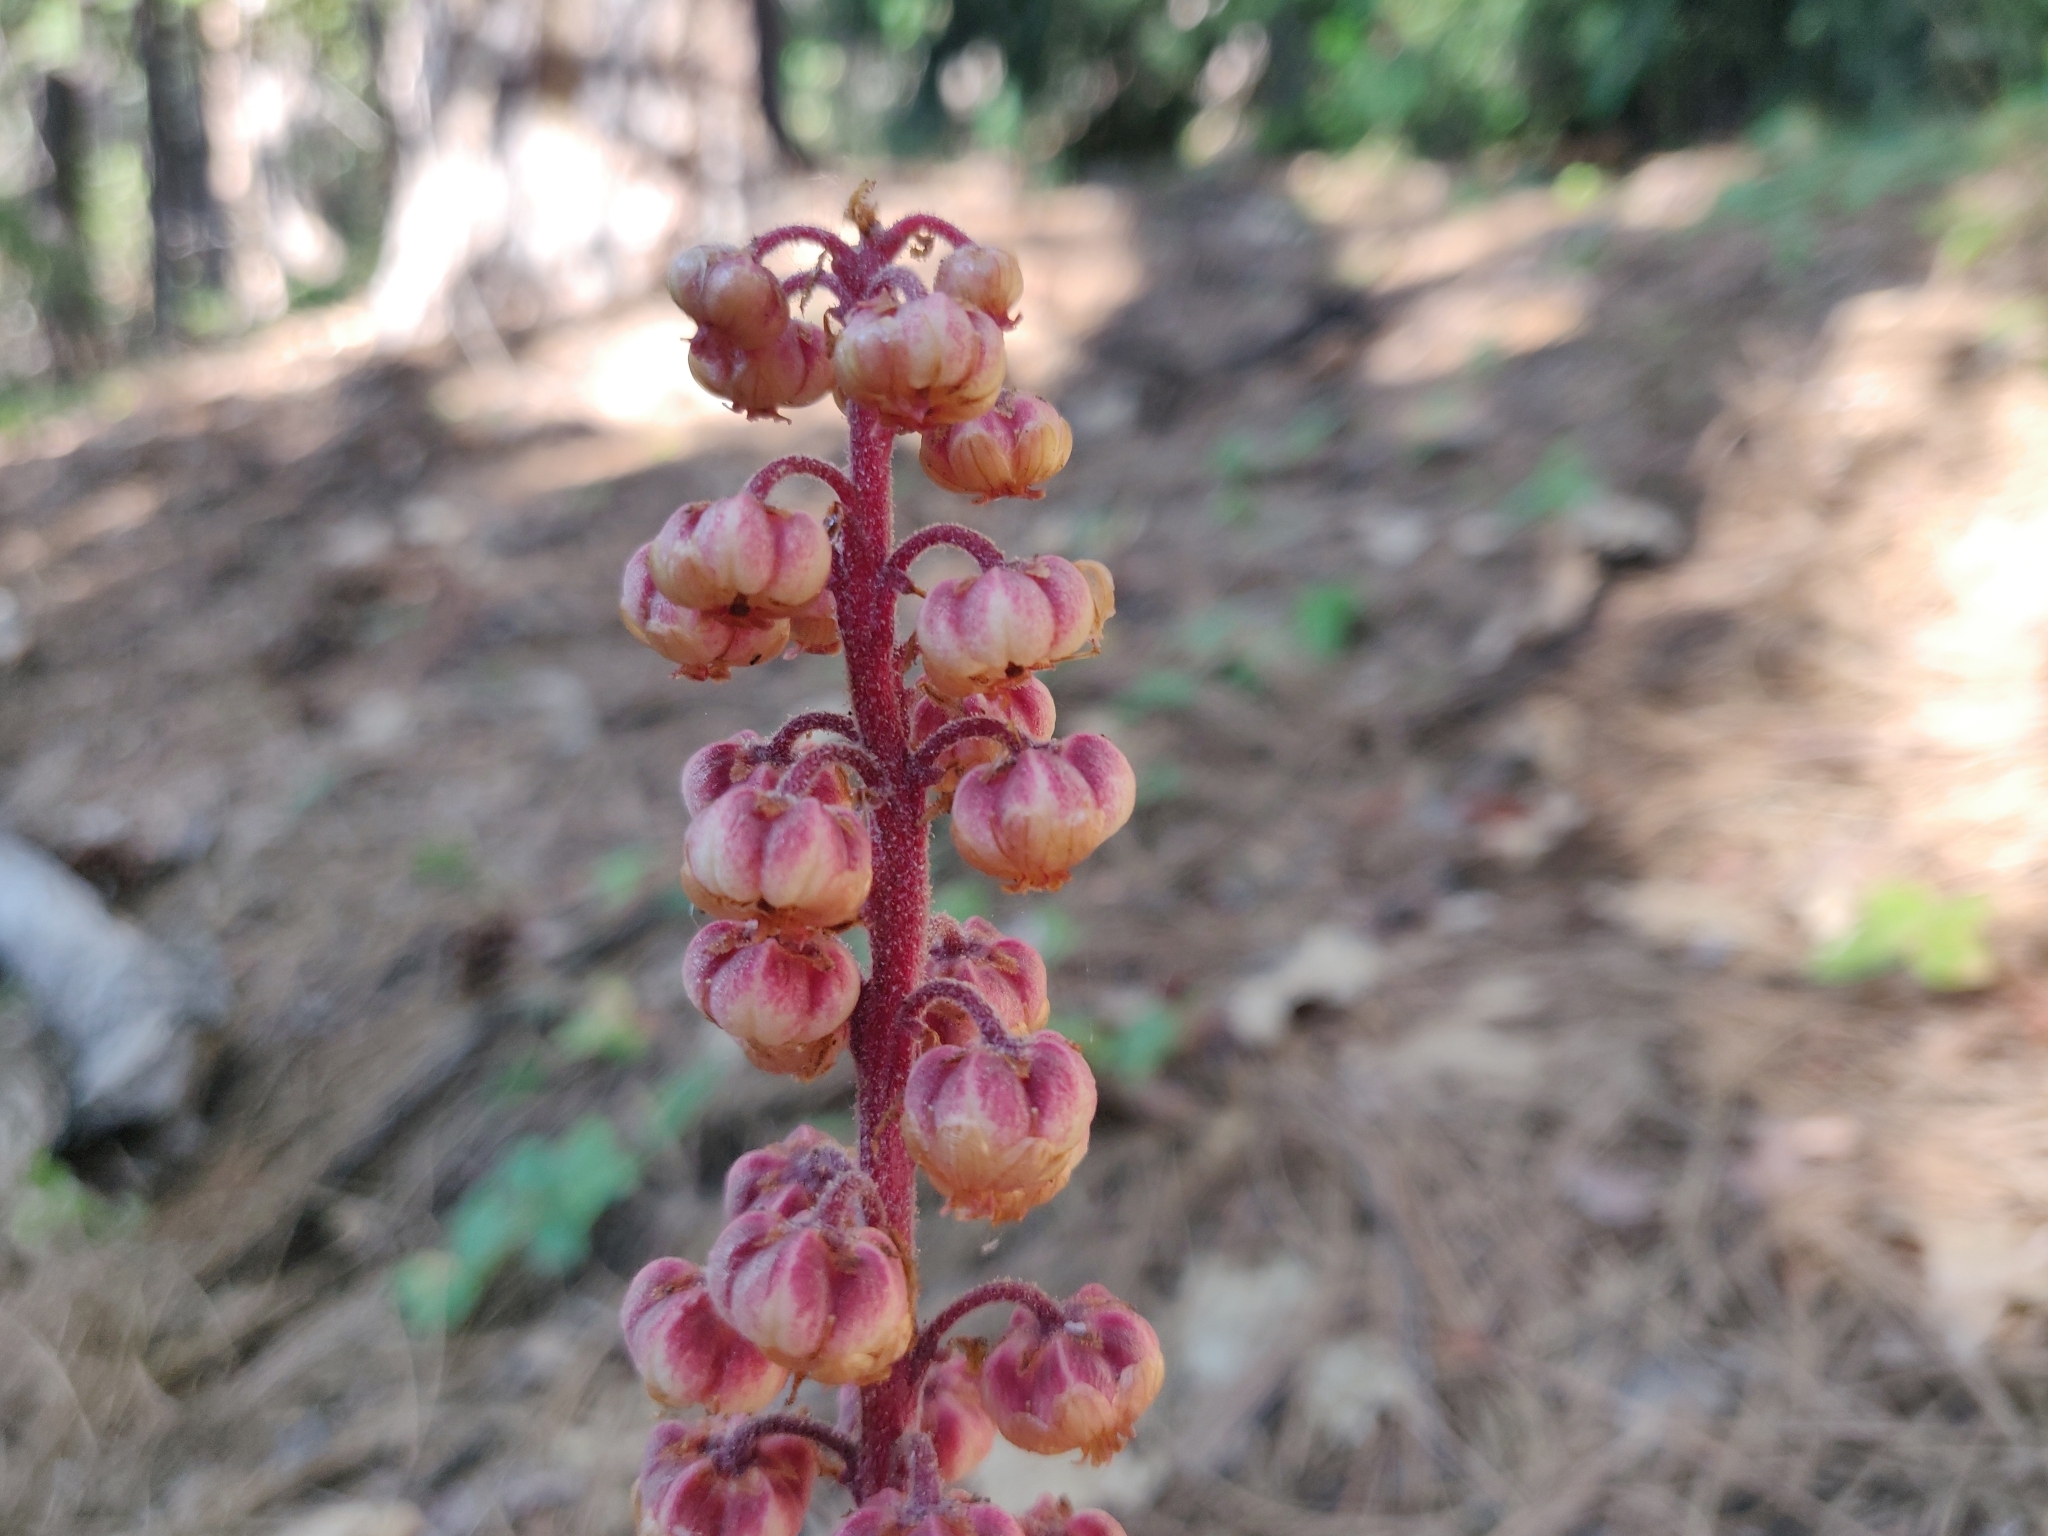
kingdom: Plantae
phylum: Tracheophyta
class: Magnoliopsida
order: Ericales
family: Ericaceae
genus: Pterospora
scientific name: Pterospora andromedea
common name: Giant bird's-nest
